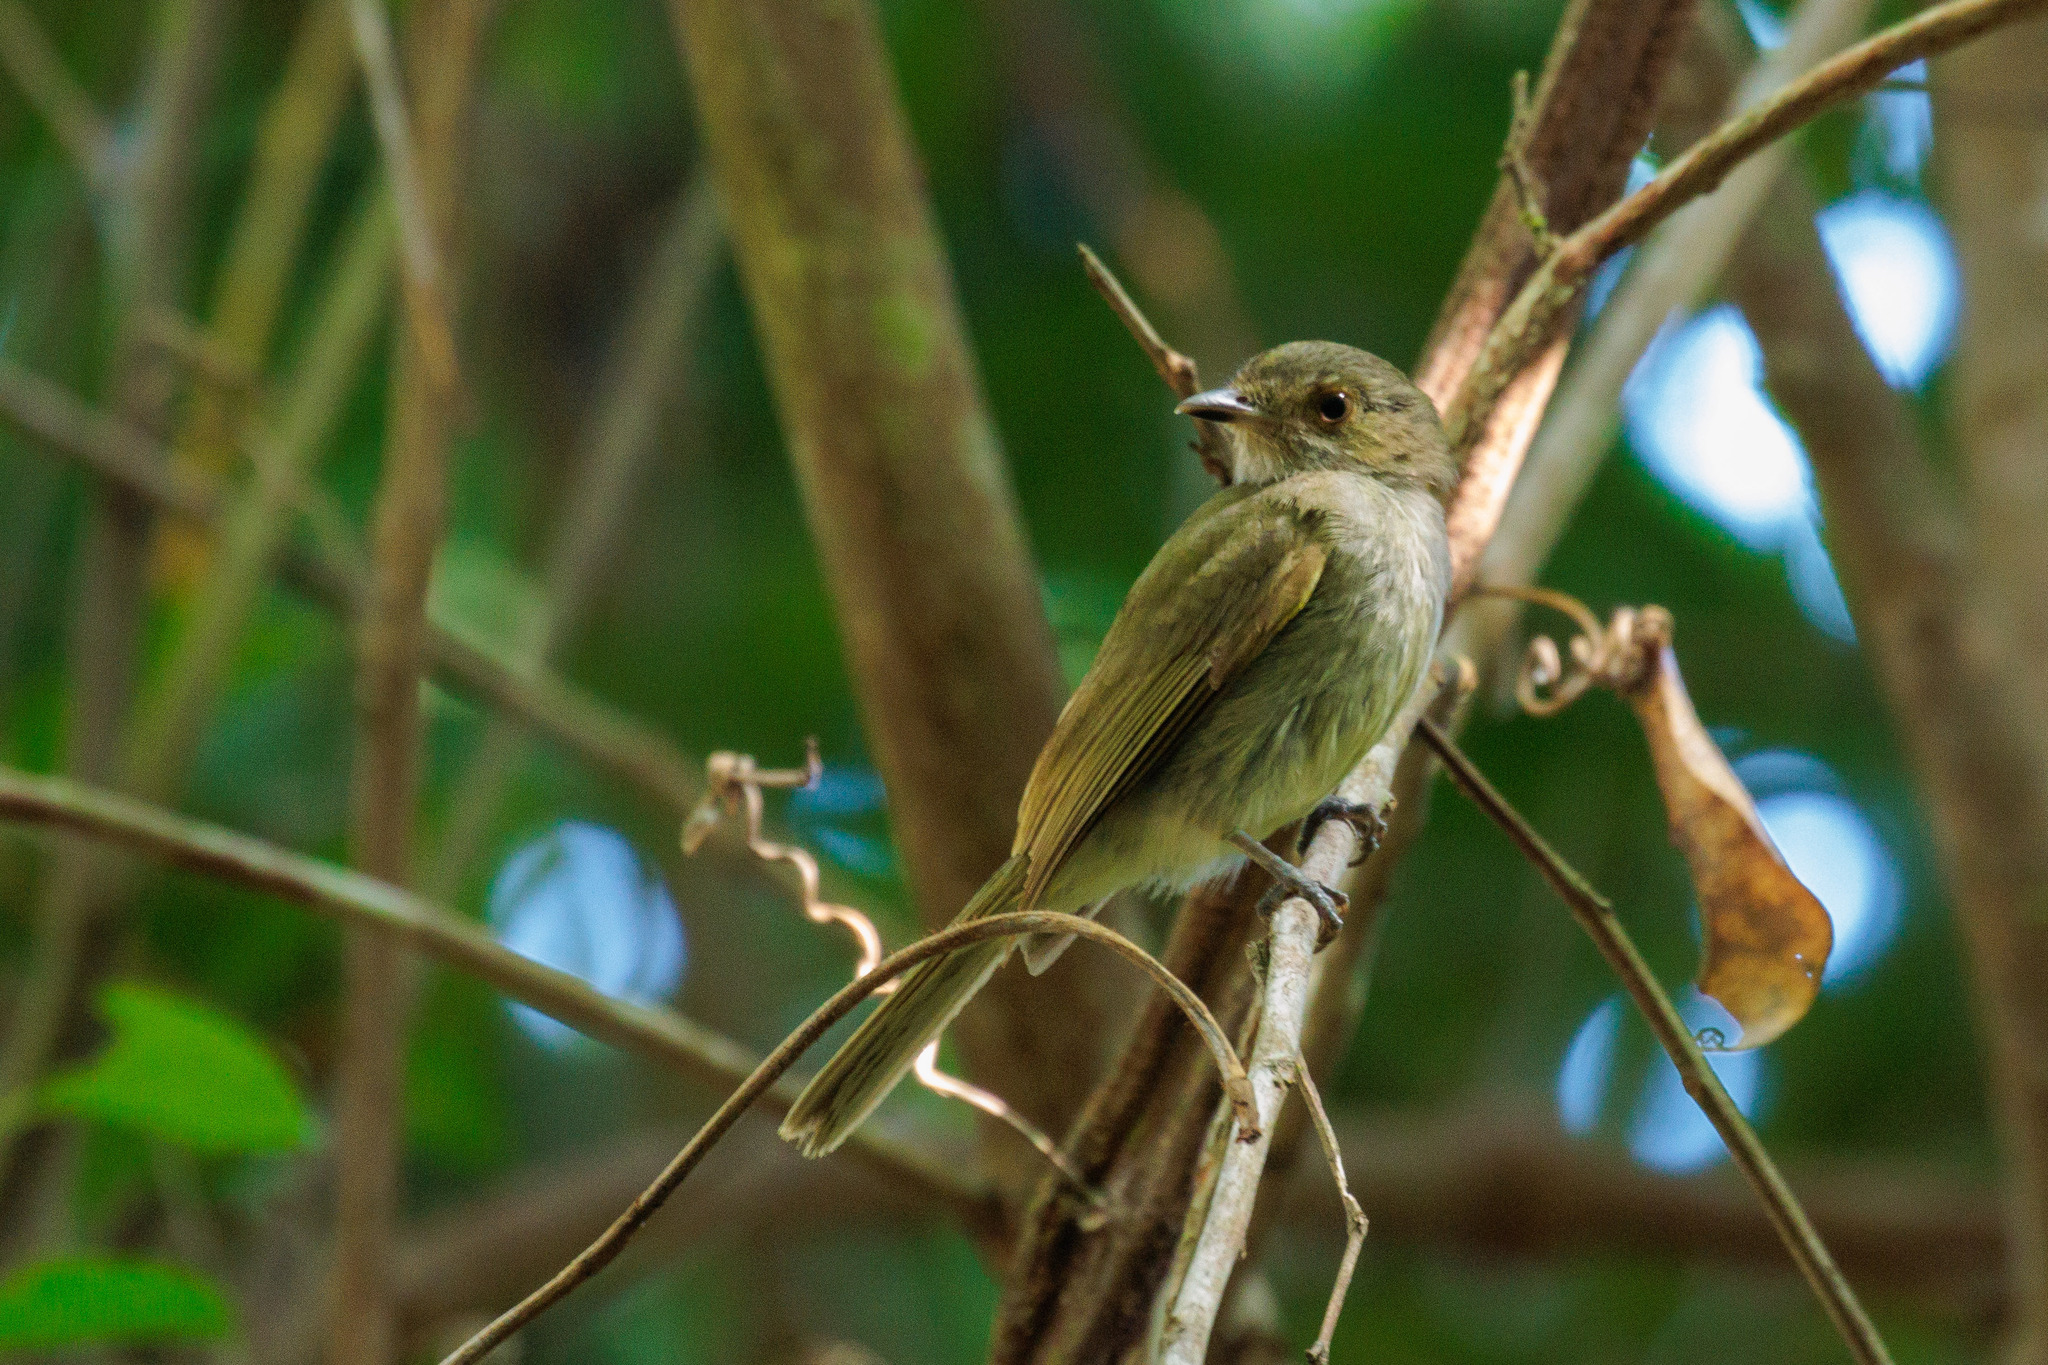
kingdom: Animalia
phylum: Chordata
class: Aves
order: Passeriformes
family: Pipridae
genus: Neopelma
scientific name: Neopelma pallescens
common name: Pale-bellied tyrant-manakin
